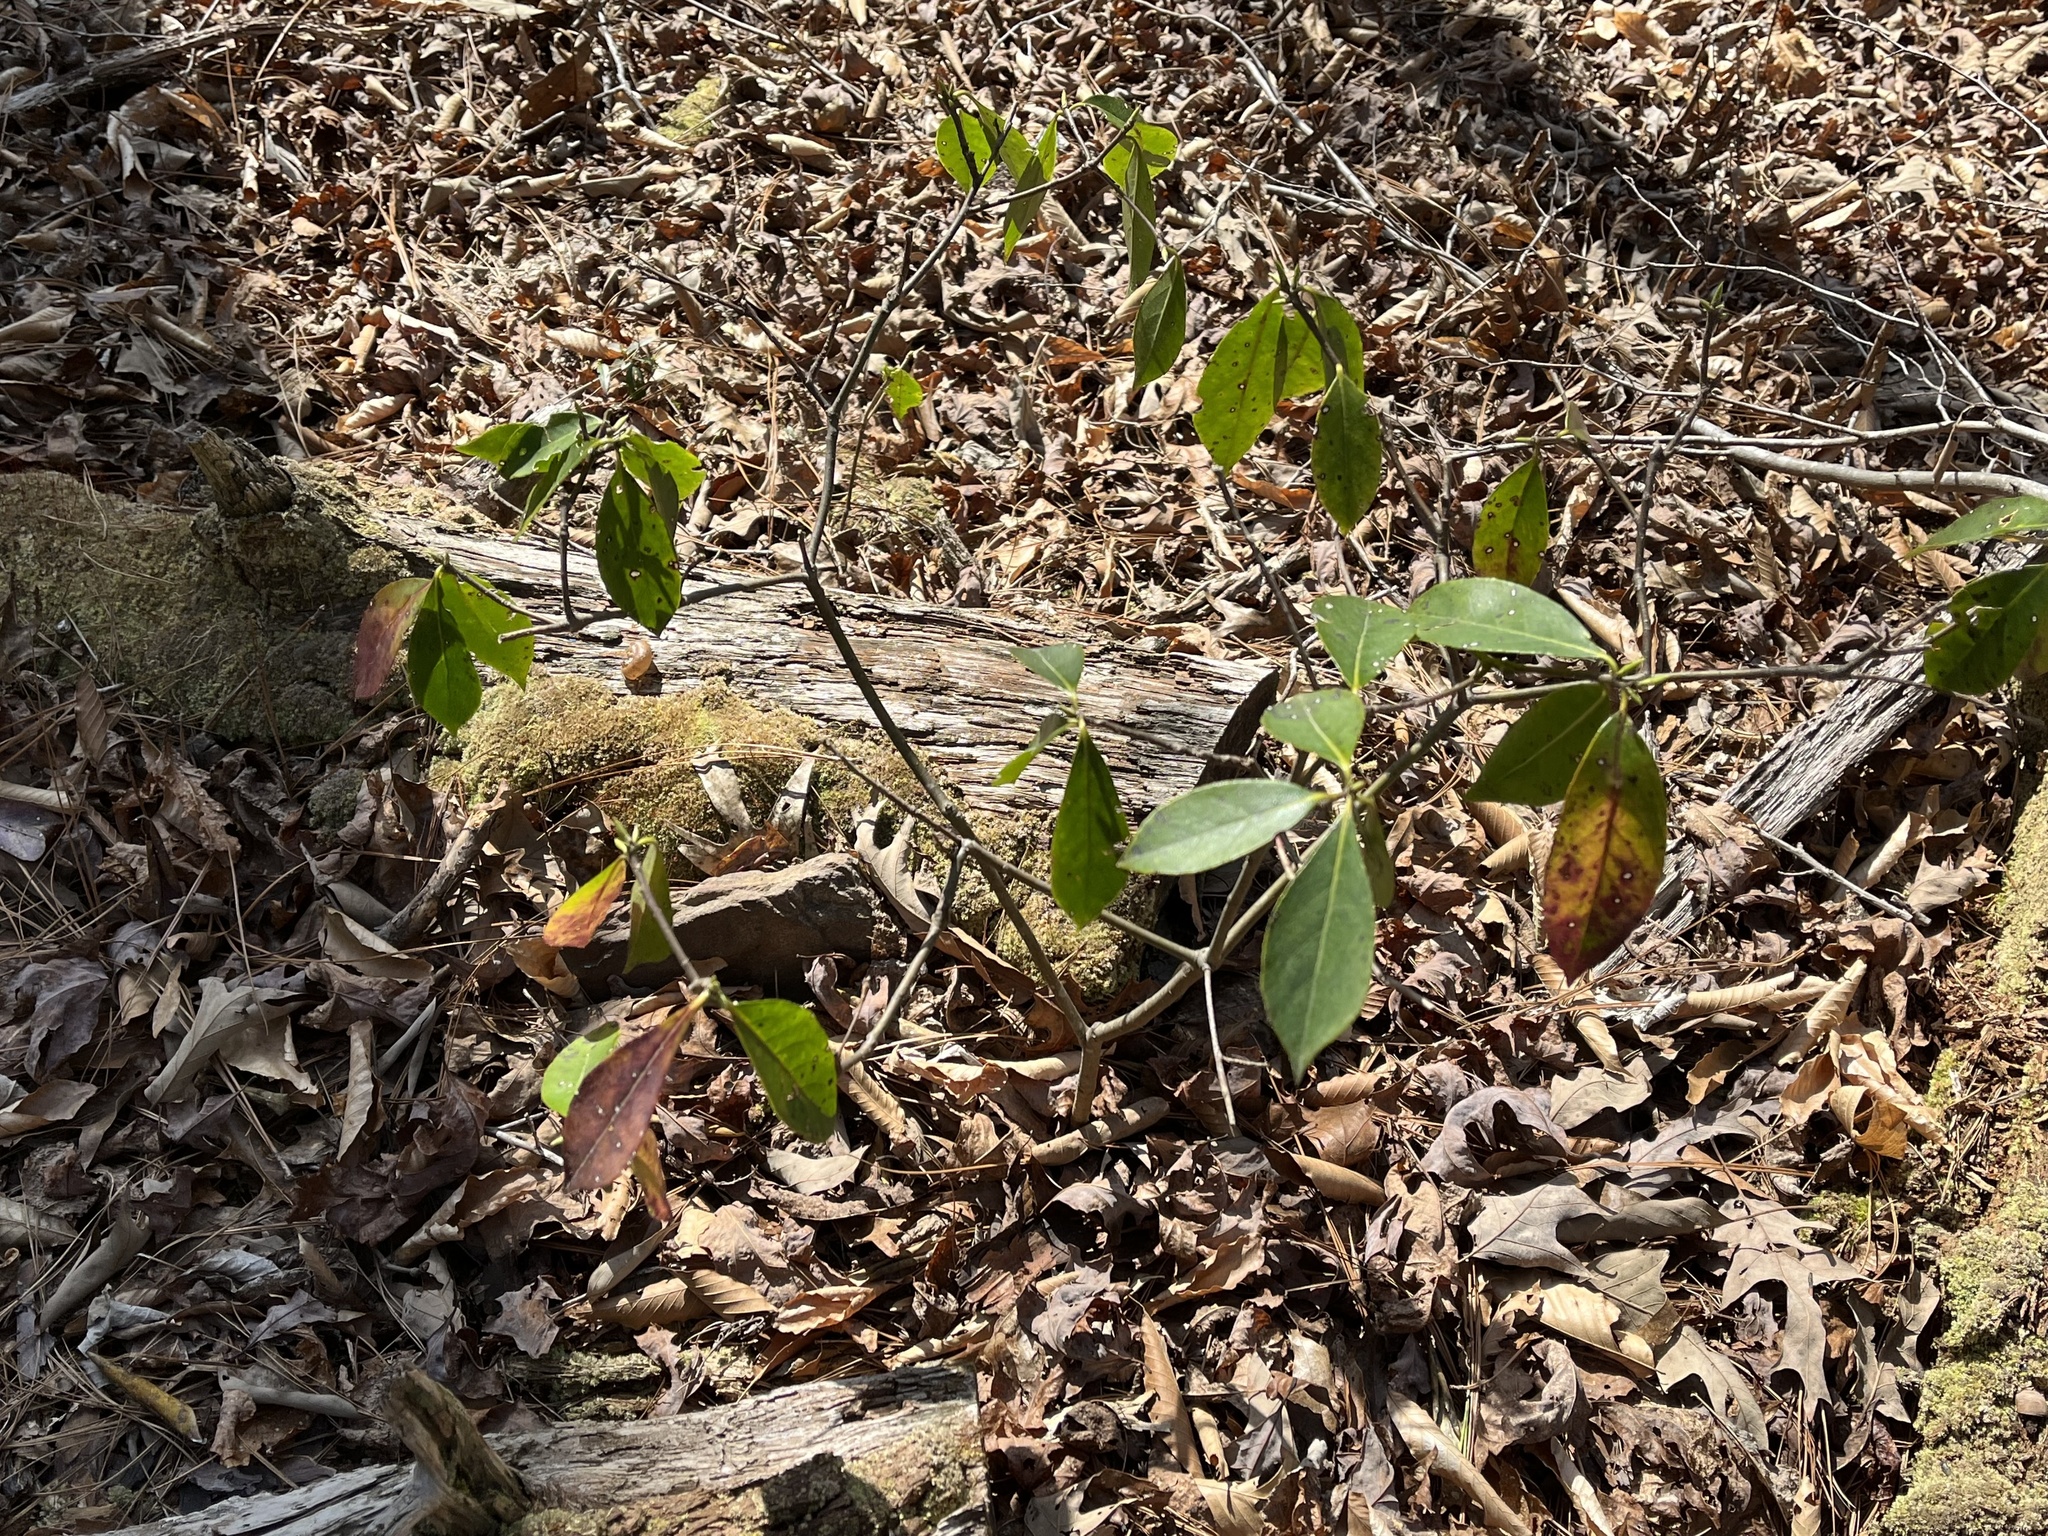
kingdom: Plantae
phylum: Tracheophyta
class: Magnoliopsida
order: Ericales
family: Symplocaceae
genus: Symplocos
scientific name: Symplocos tinctoria
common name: Horse-sugar
